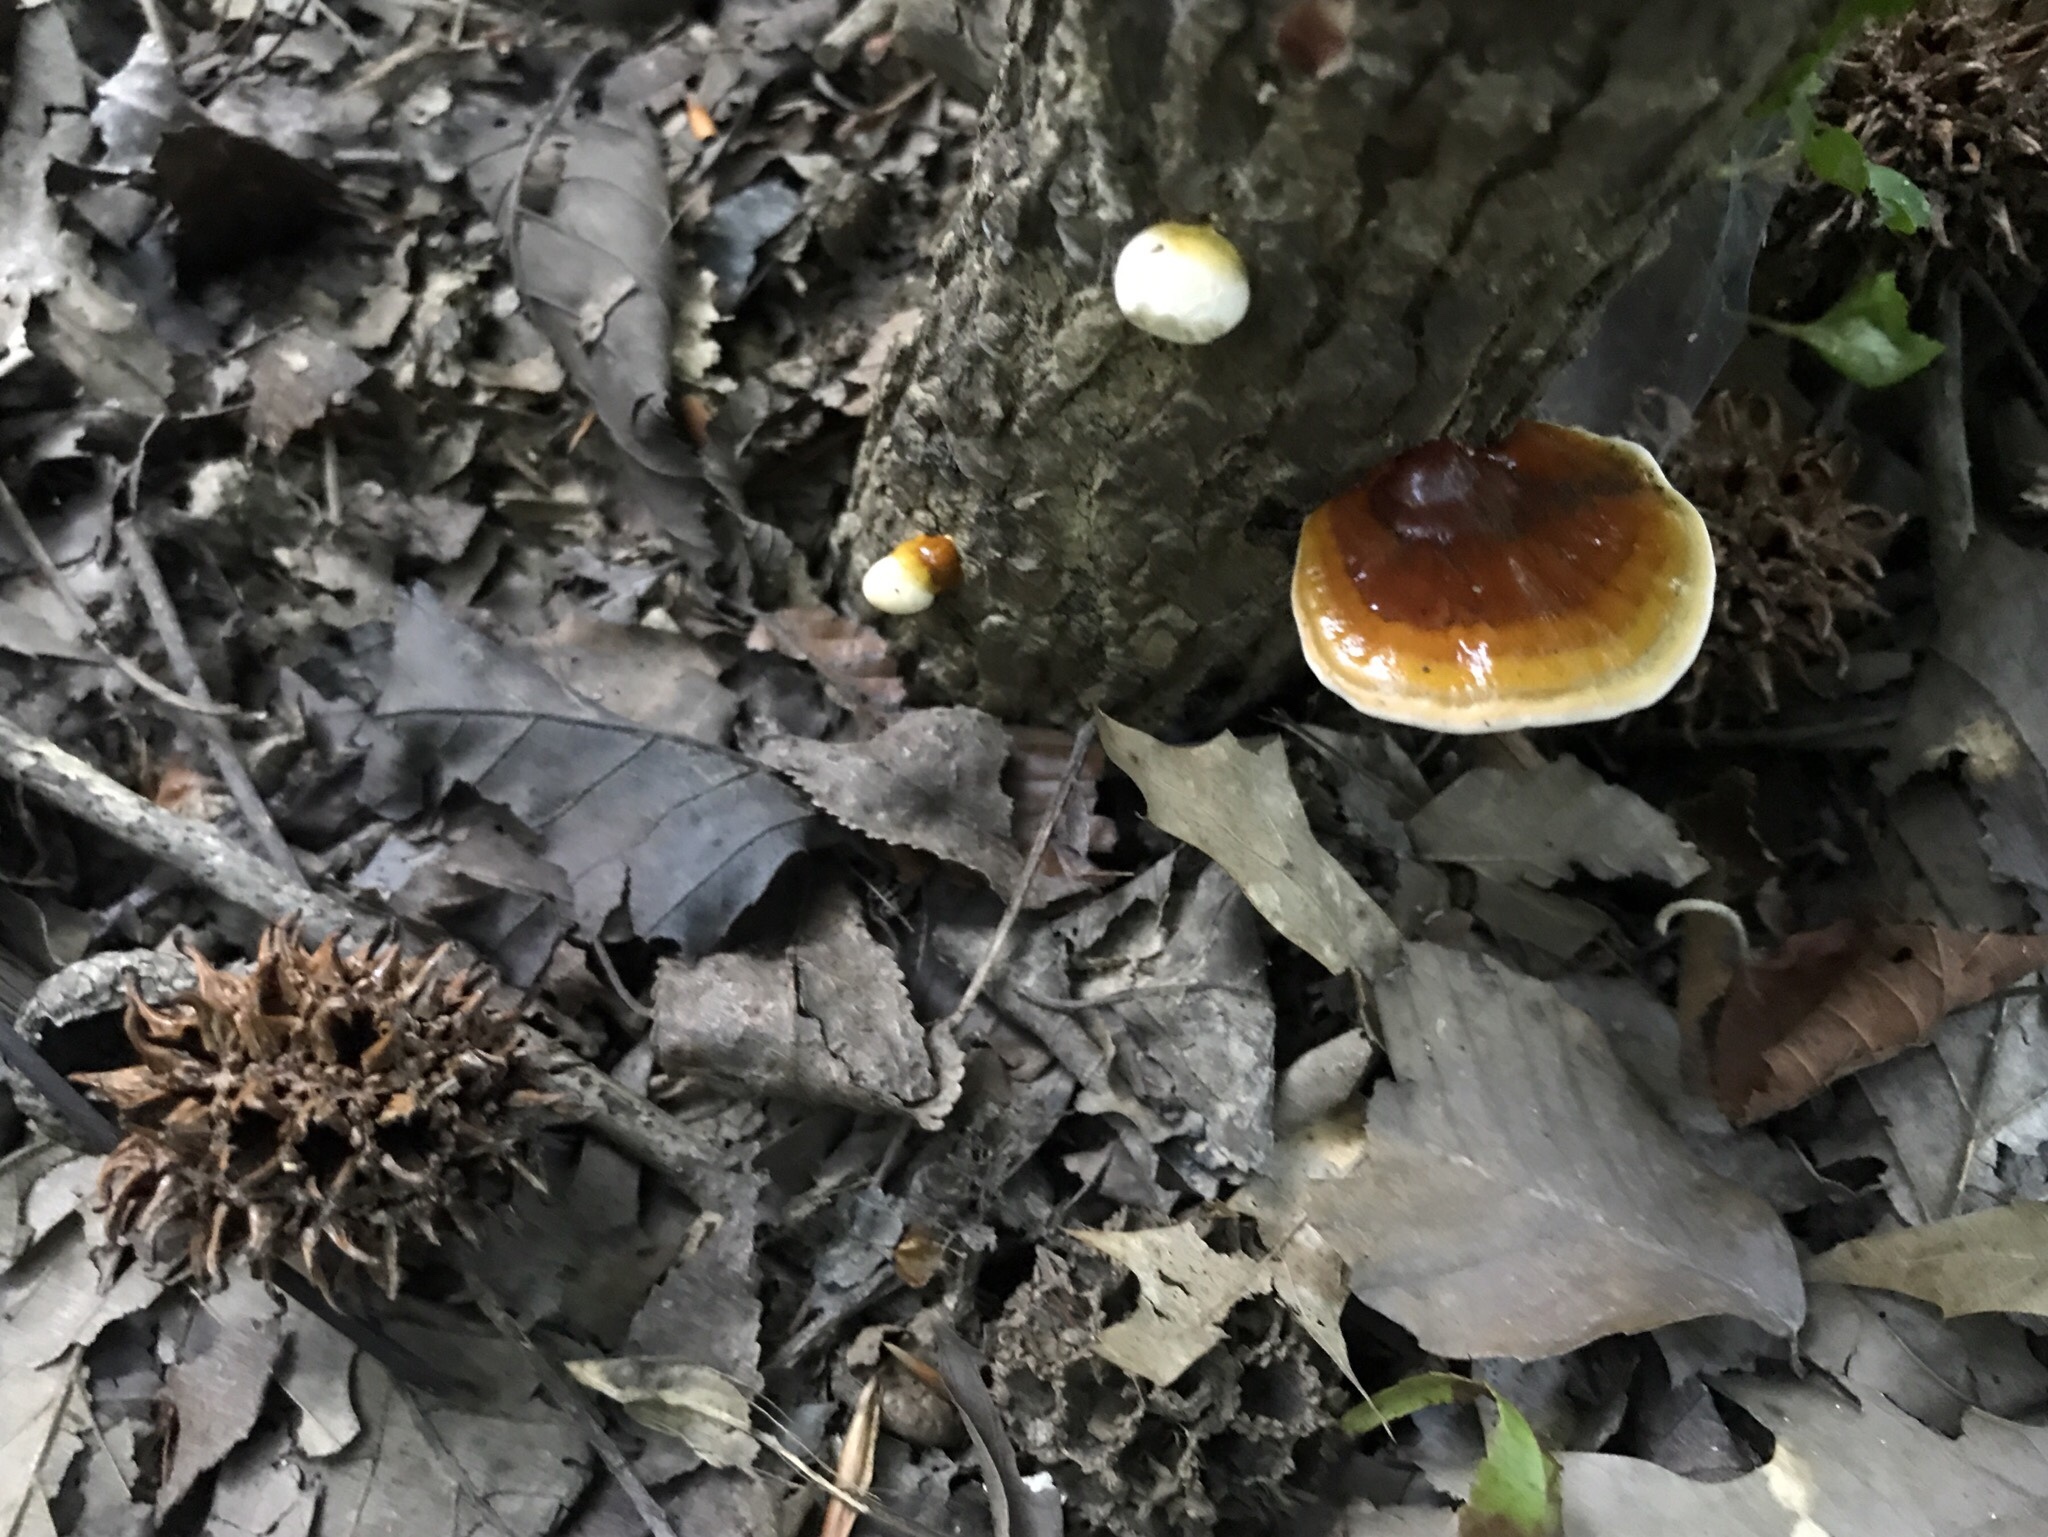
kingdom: Fungi
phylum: Basidiomycota
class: Agaricomycetes
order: Polyporales
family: Polyporaceae
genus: Ganoderma
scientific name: Ganoderma resinaceum
